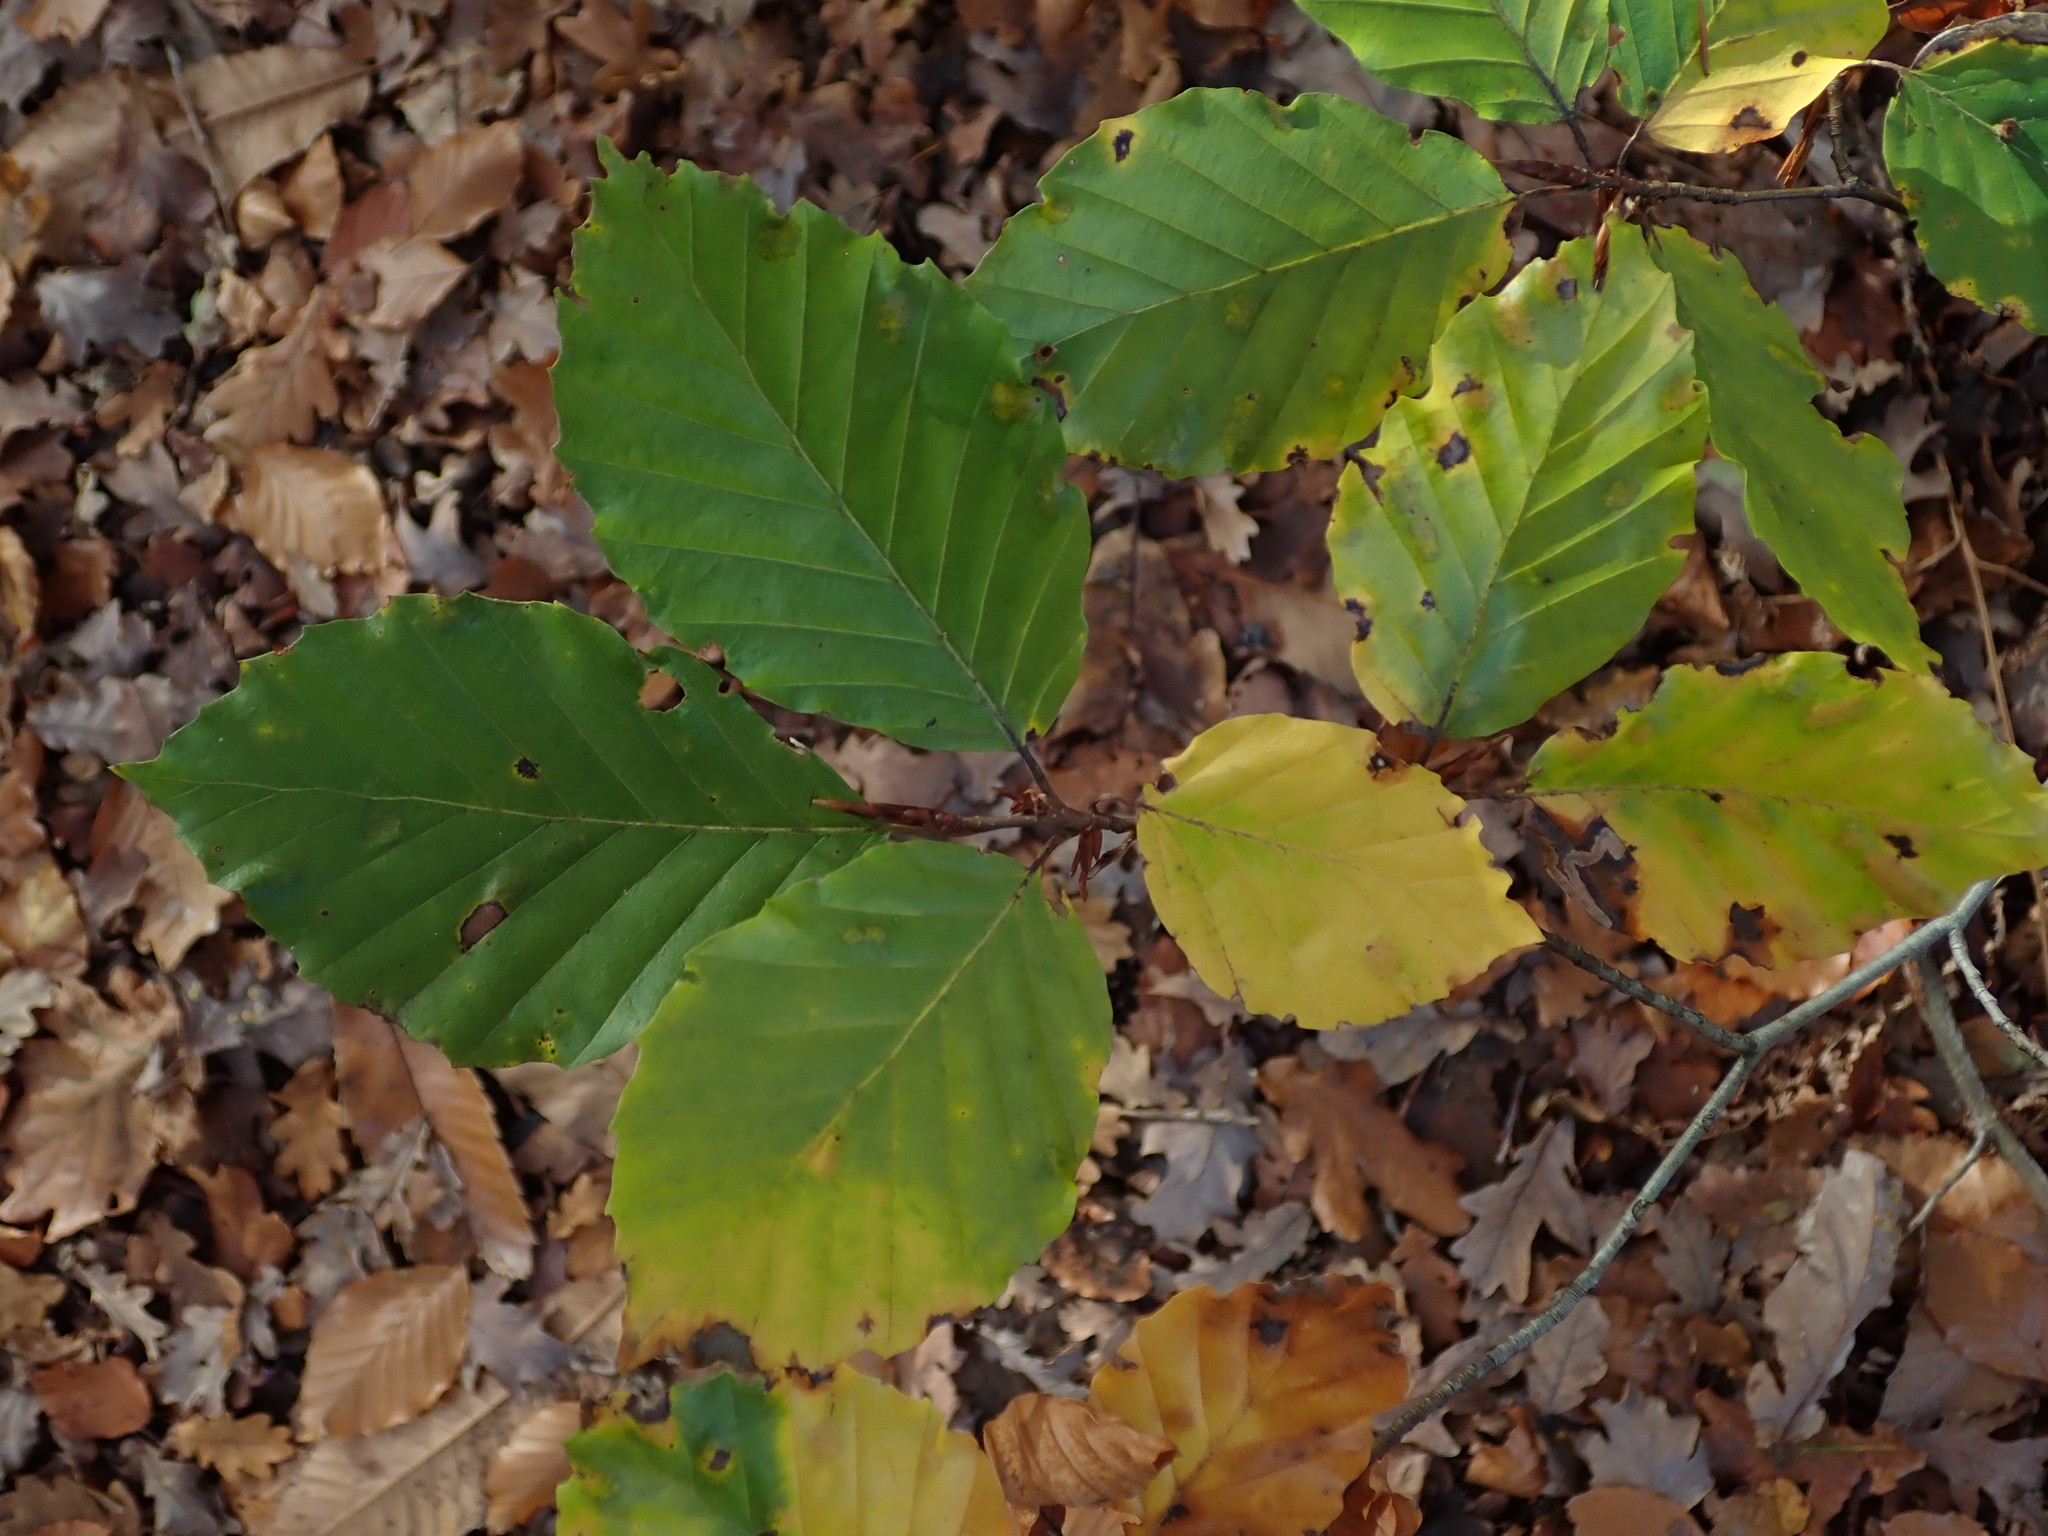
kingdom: Plantae
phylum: Tracheophyta
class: Magnoliopsida
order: Fagales
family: Fagaceae
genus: Fagus
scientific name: Fagus sylvatica
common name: Beech
